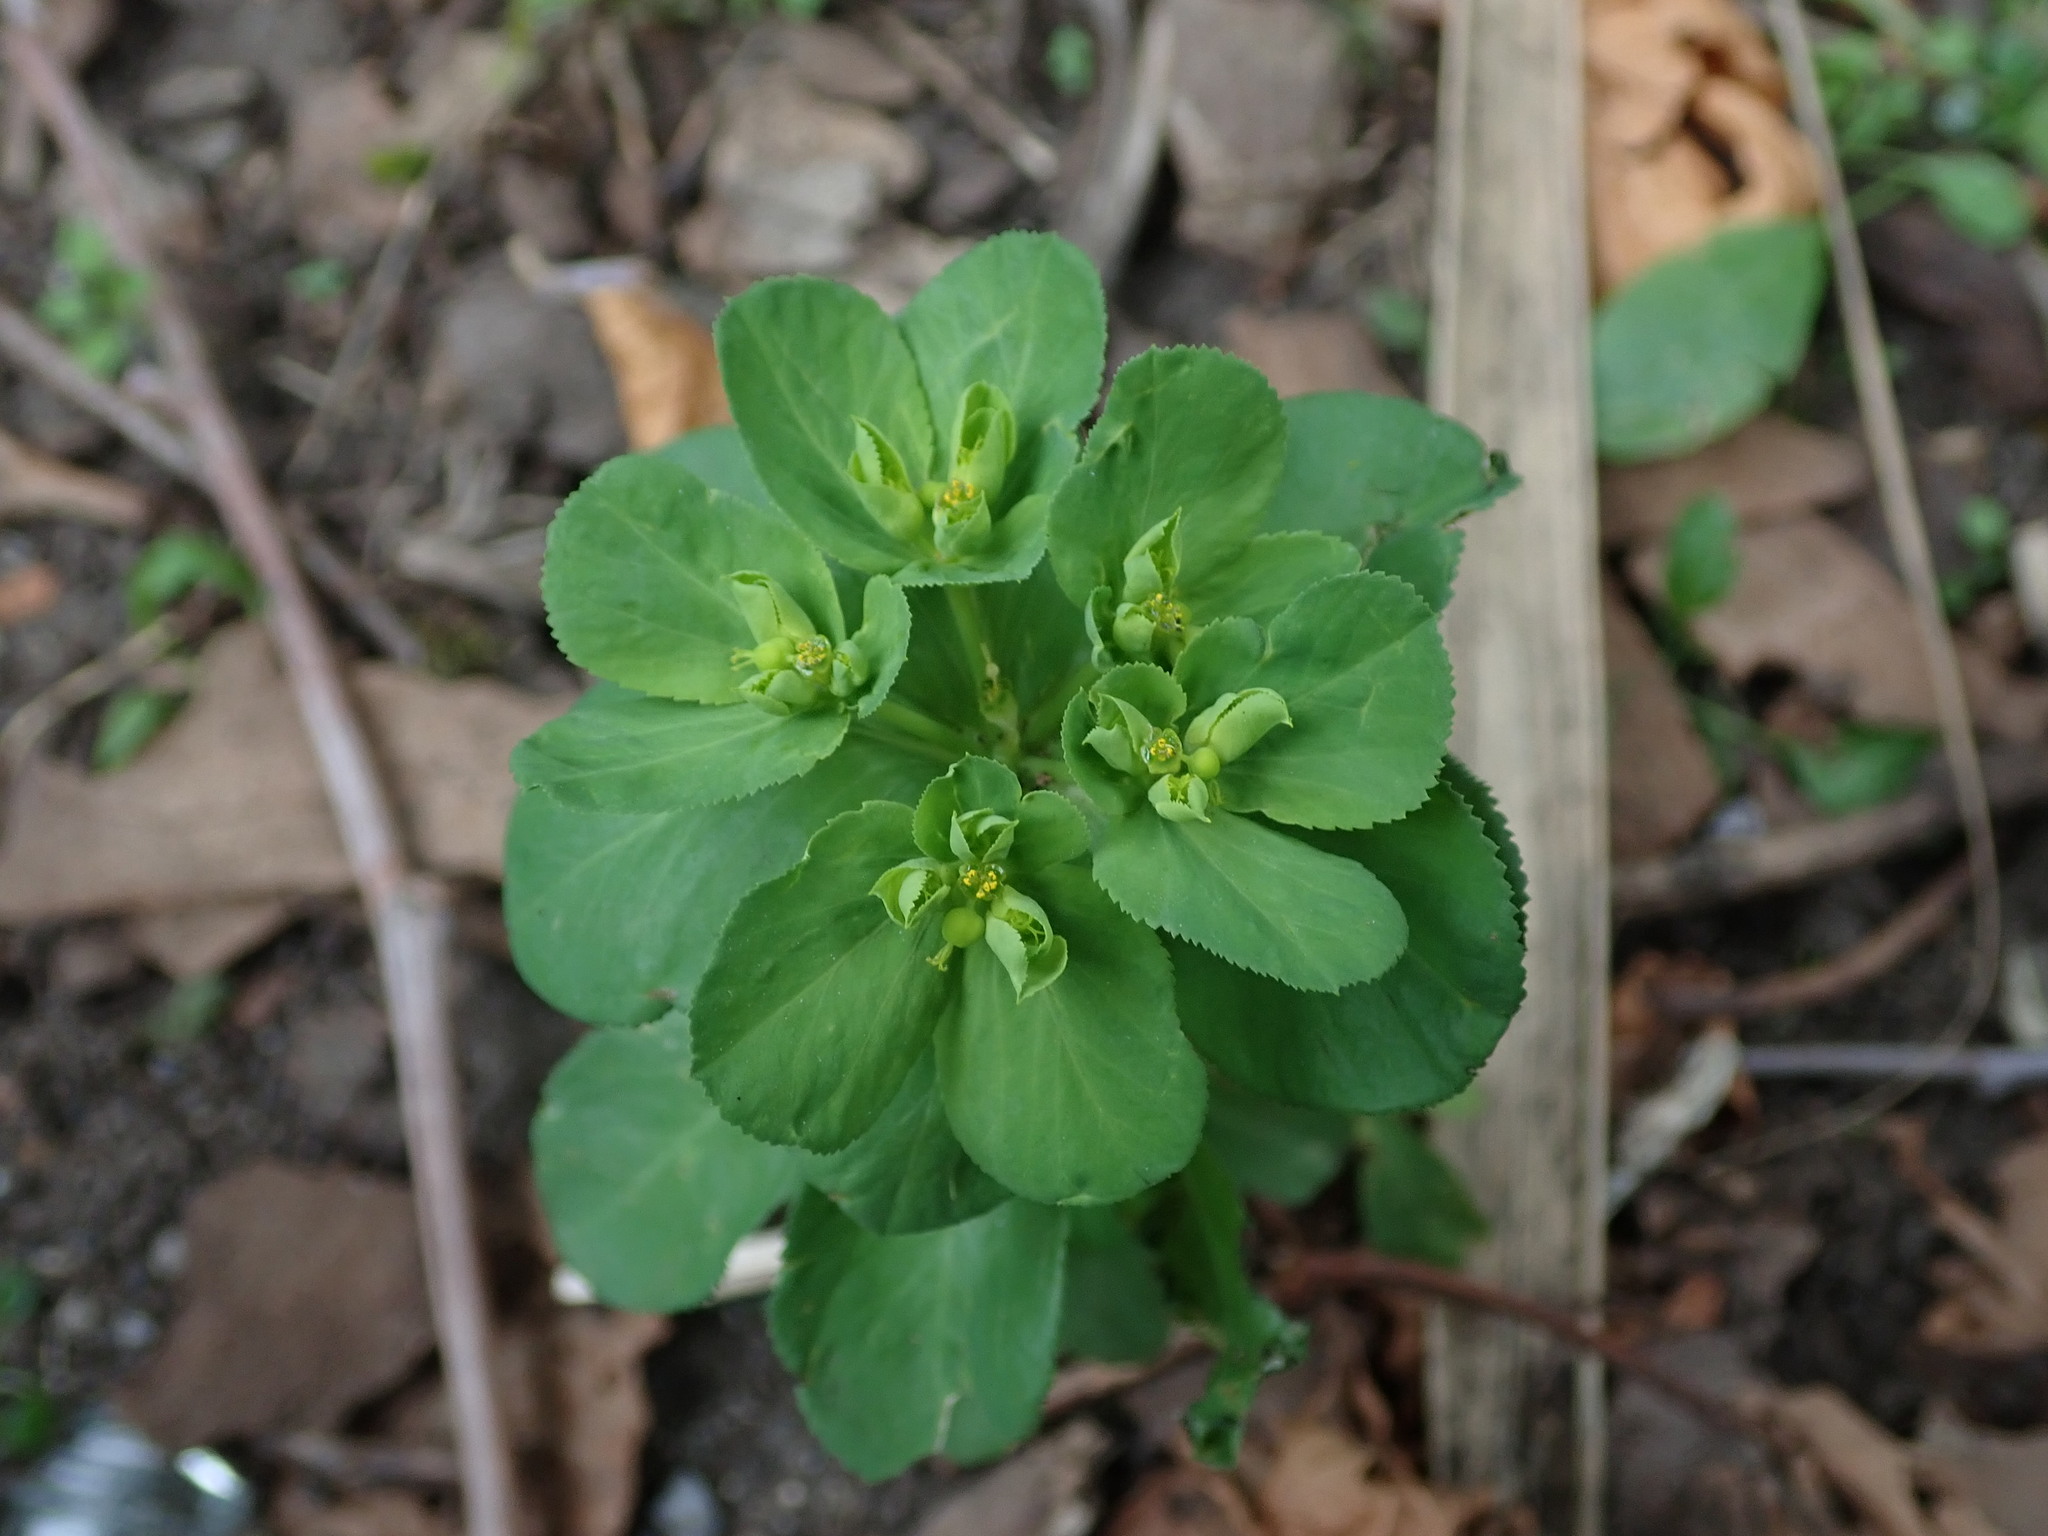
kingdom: Plantae
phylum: Tracheophyta
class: Magnoliopsida
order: Malpighiales
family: Euphorbiaceae
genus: Euphorbia
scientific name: Euphorbia helioscopia
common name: Sun spurge
